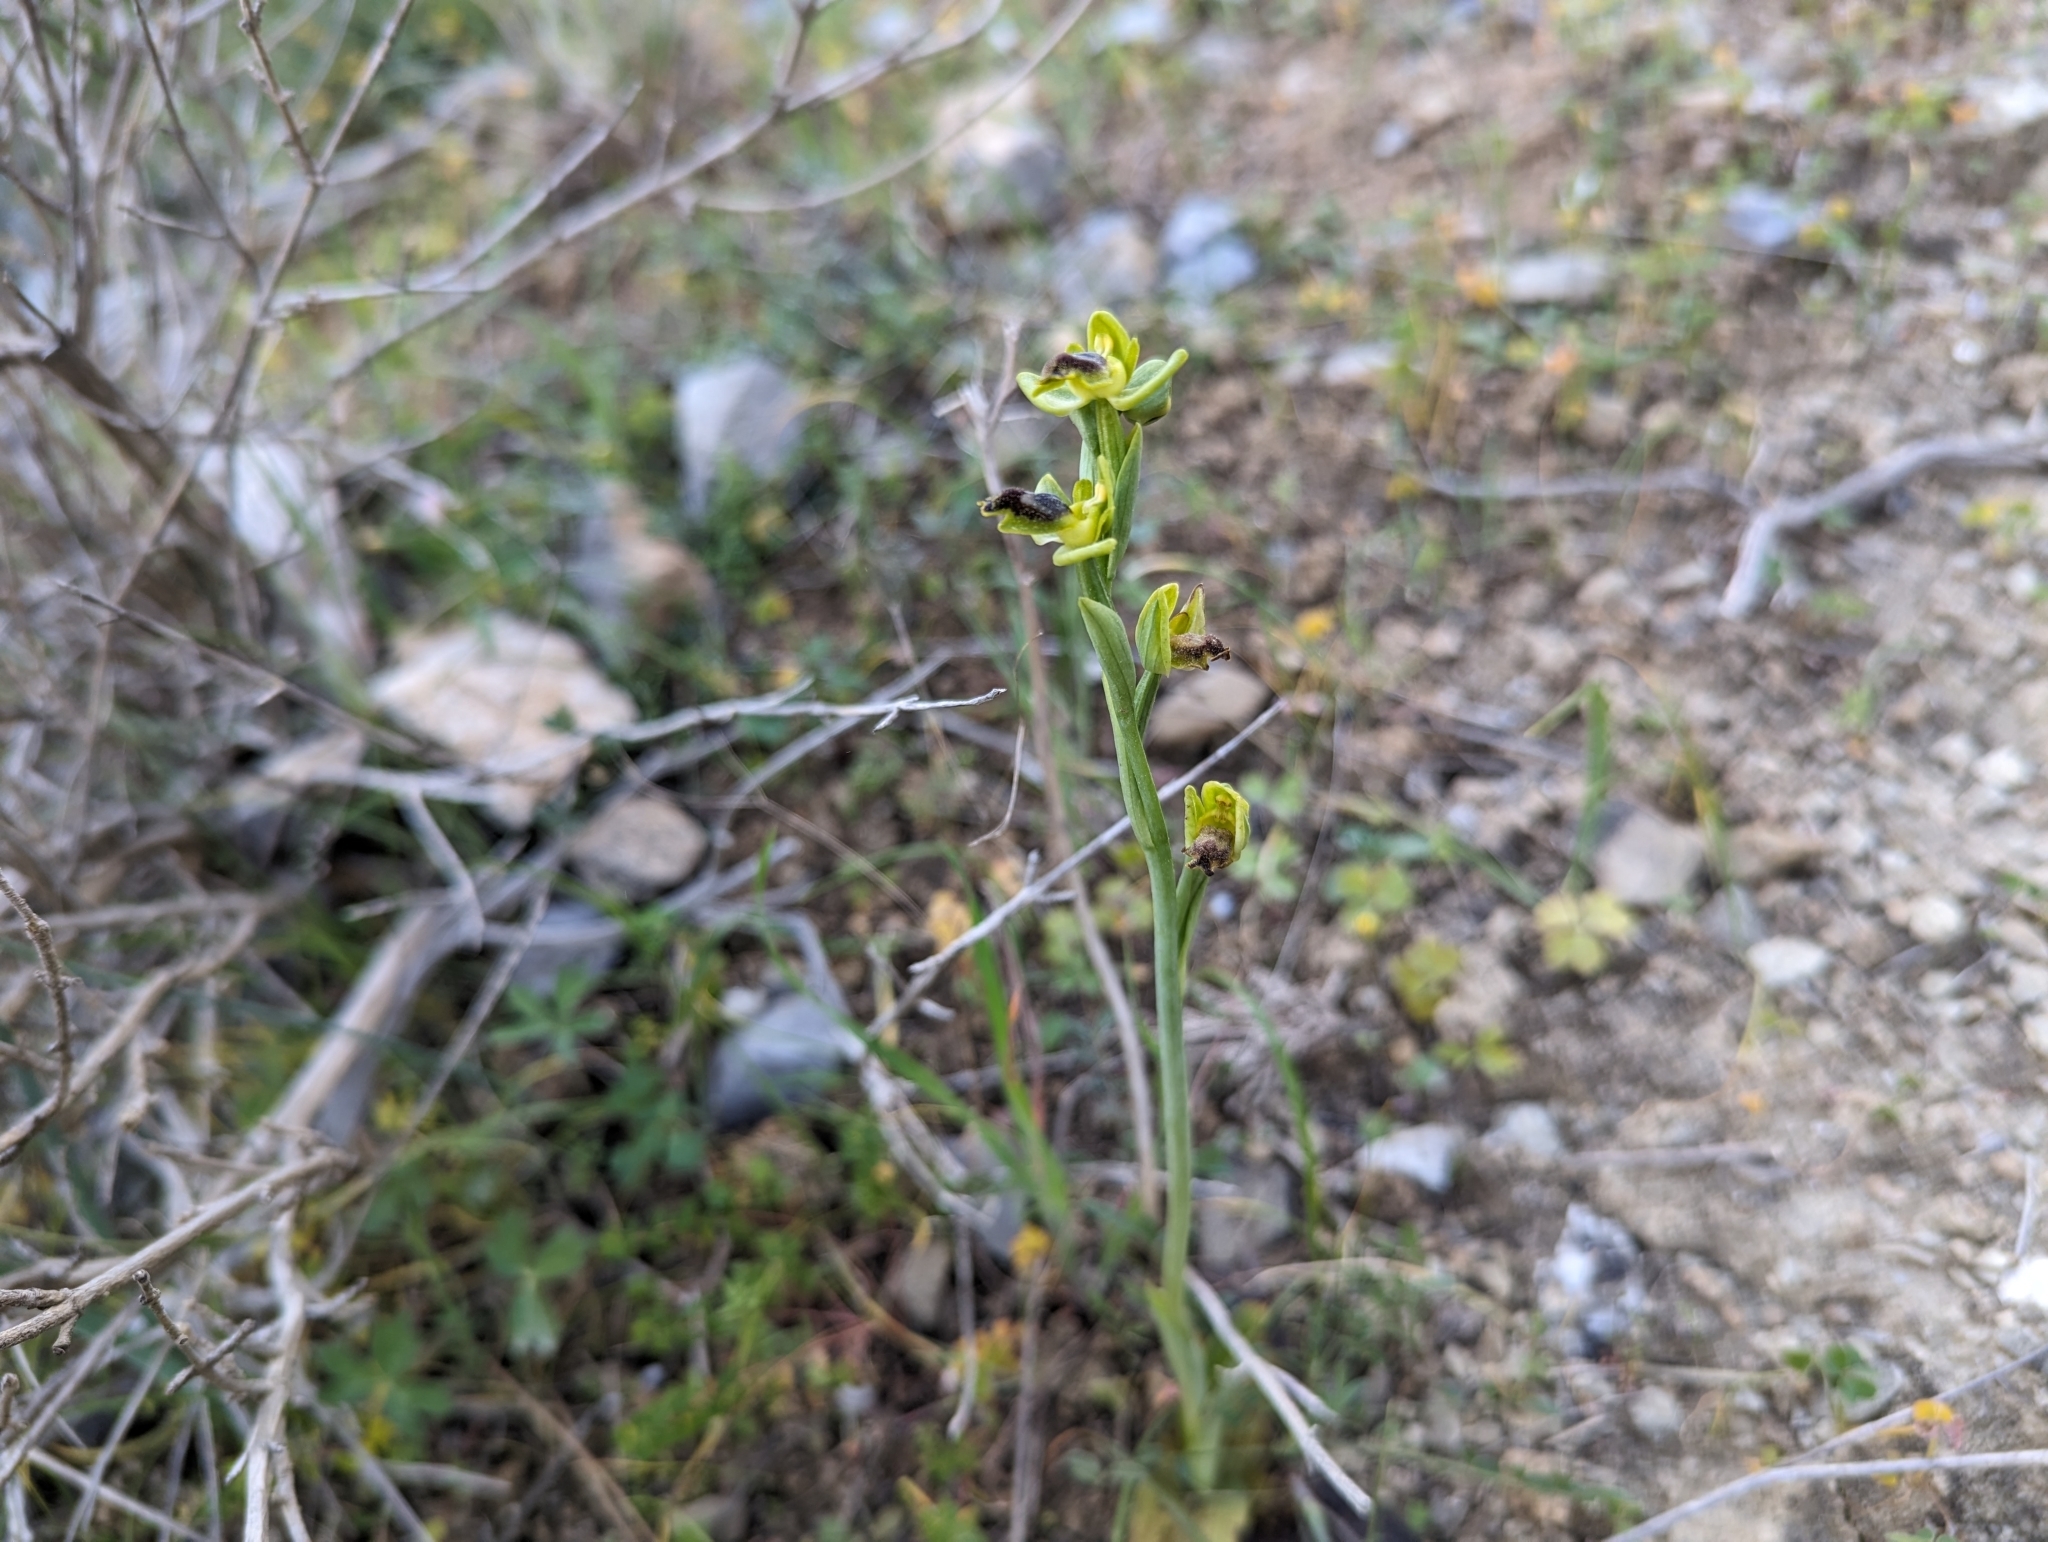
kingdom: Plantae
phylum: Tracheophyta
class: Liliopsida
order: Asparagales
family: Orchidaceae
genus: Ophrys
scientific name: Ophrys lutea
